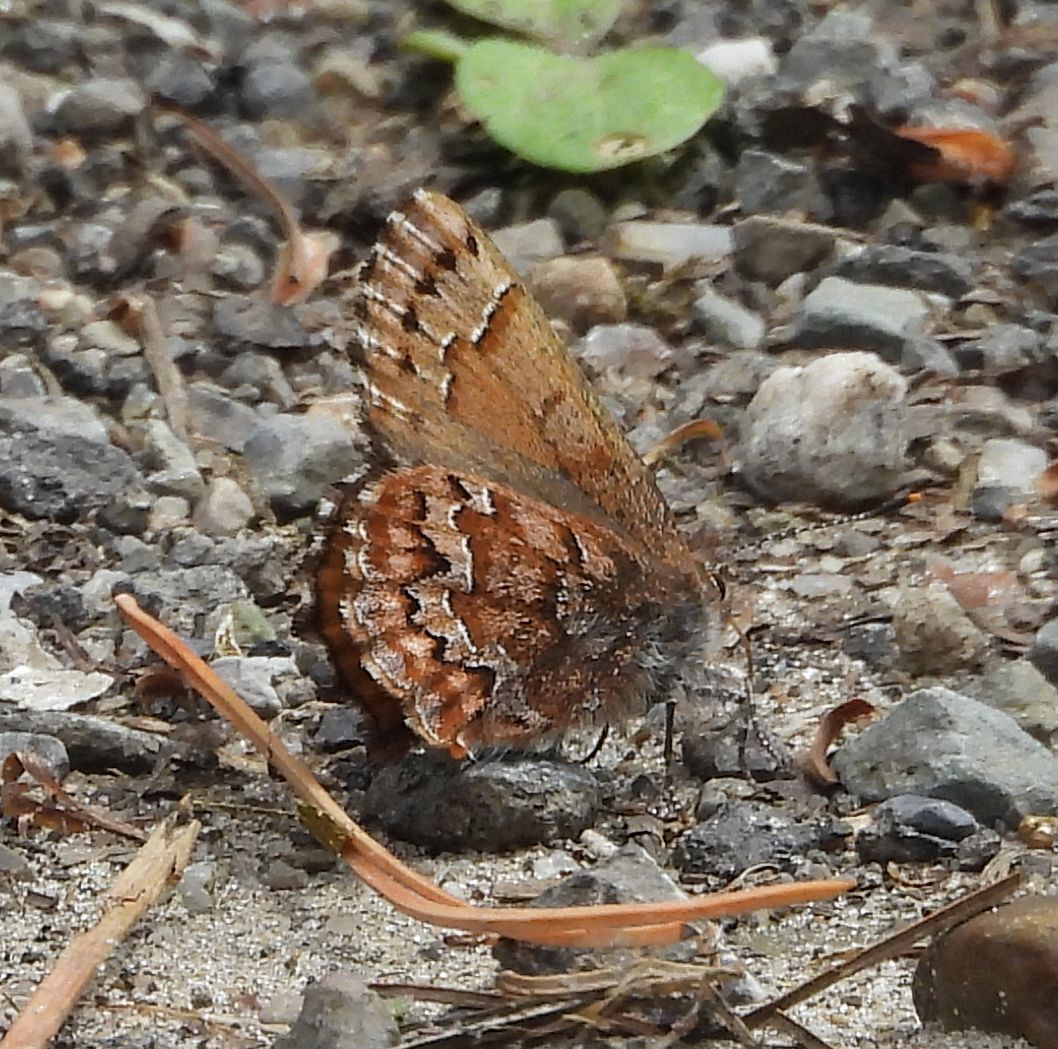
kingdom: Animalia
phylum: Arthropoda
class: Insecta
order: Lepidoptera
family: Lycaenidae
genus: Incisalia
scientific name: Incisalia niphon
